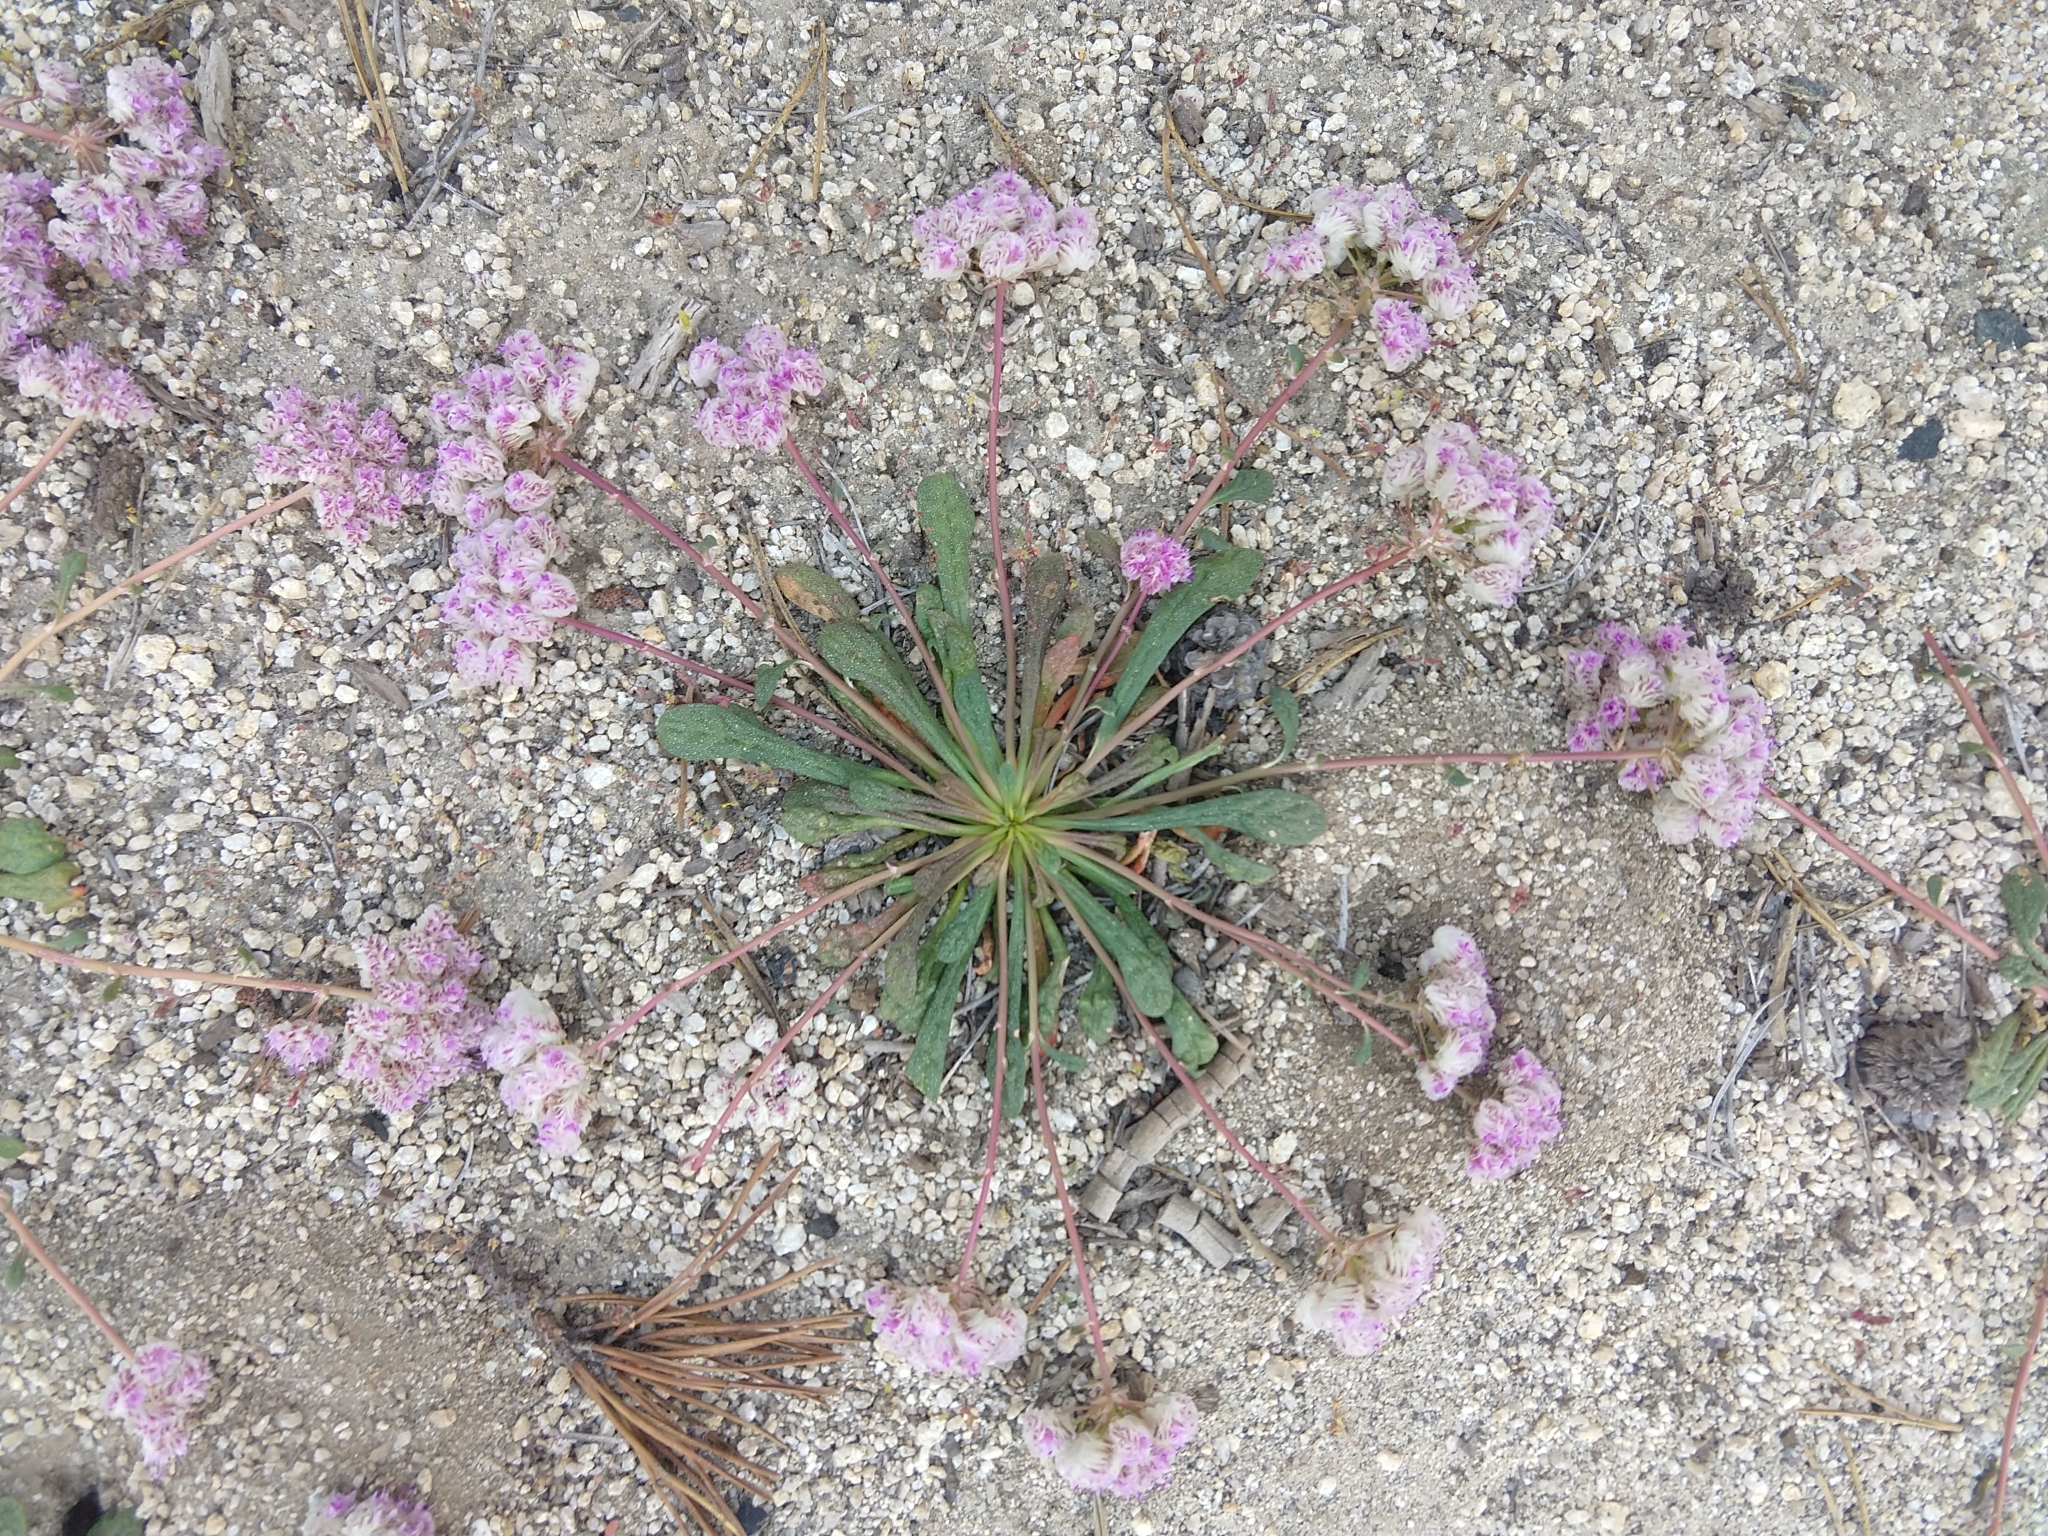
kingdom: Plantae
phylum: Tracheophyta
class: Magnoliopsida
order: Caryophyllales
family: Montiaceae
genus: Calyptridium
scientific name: Calyptridium monospermum
